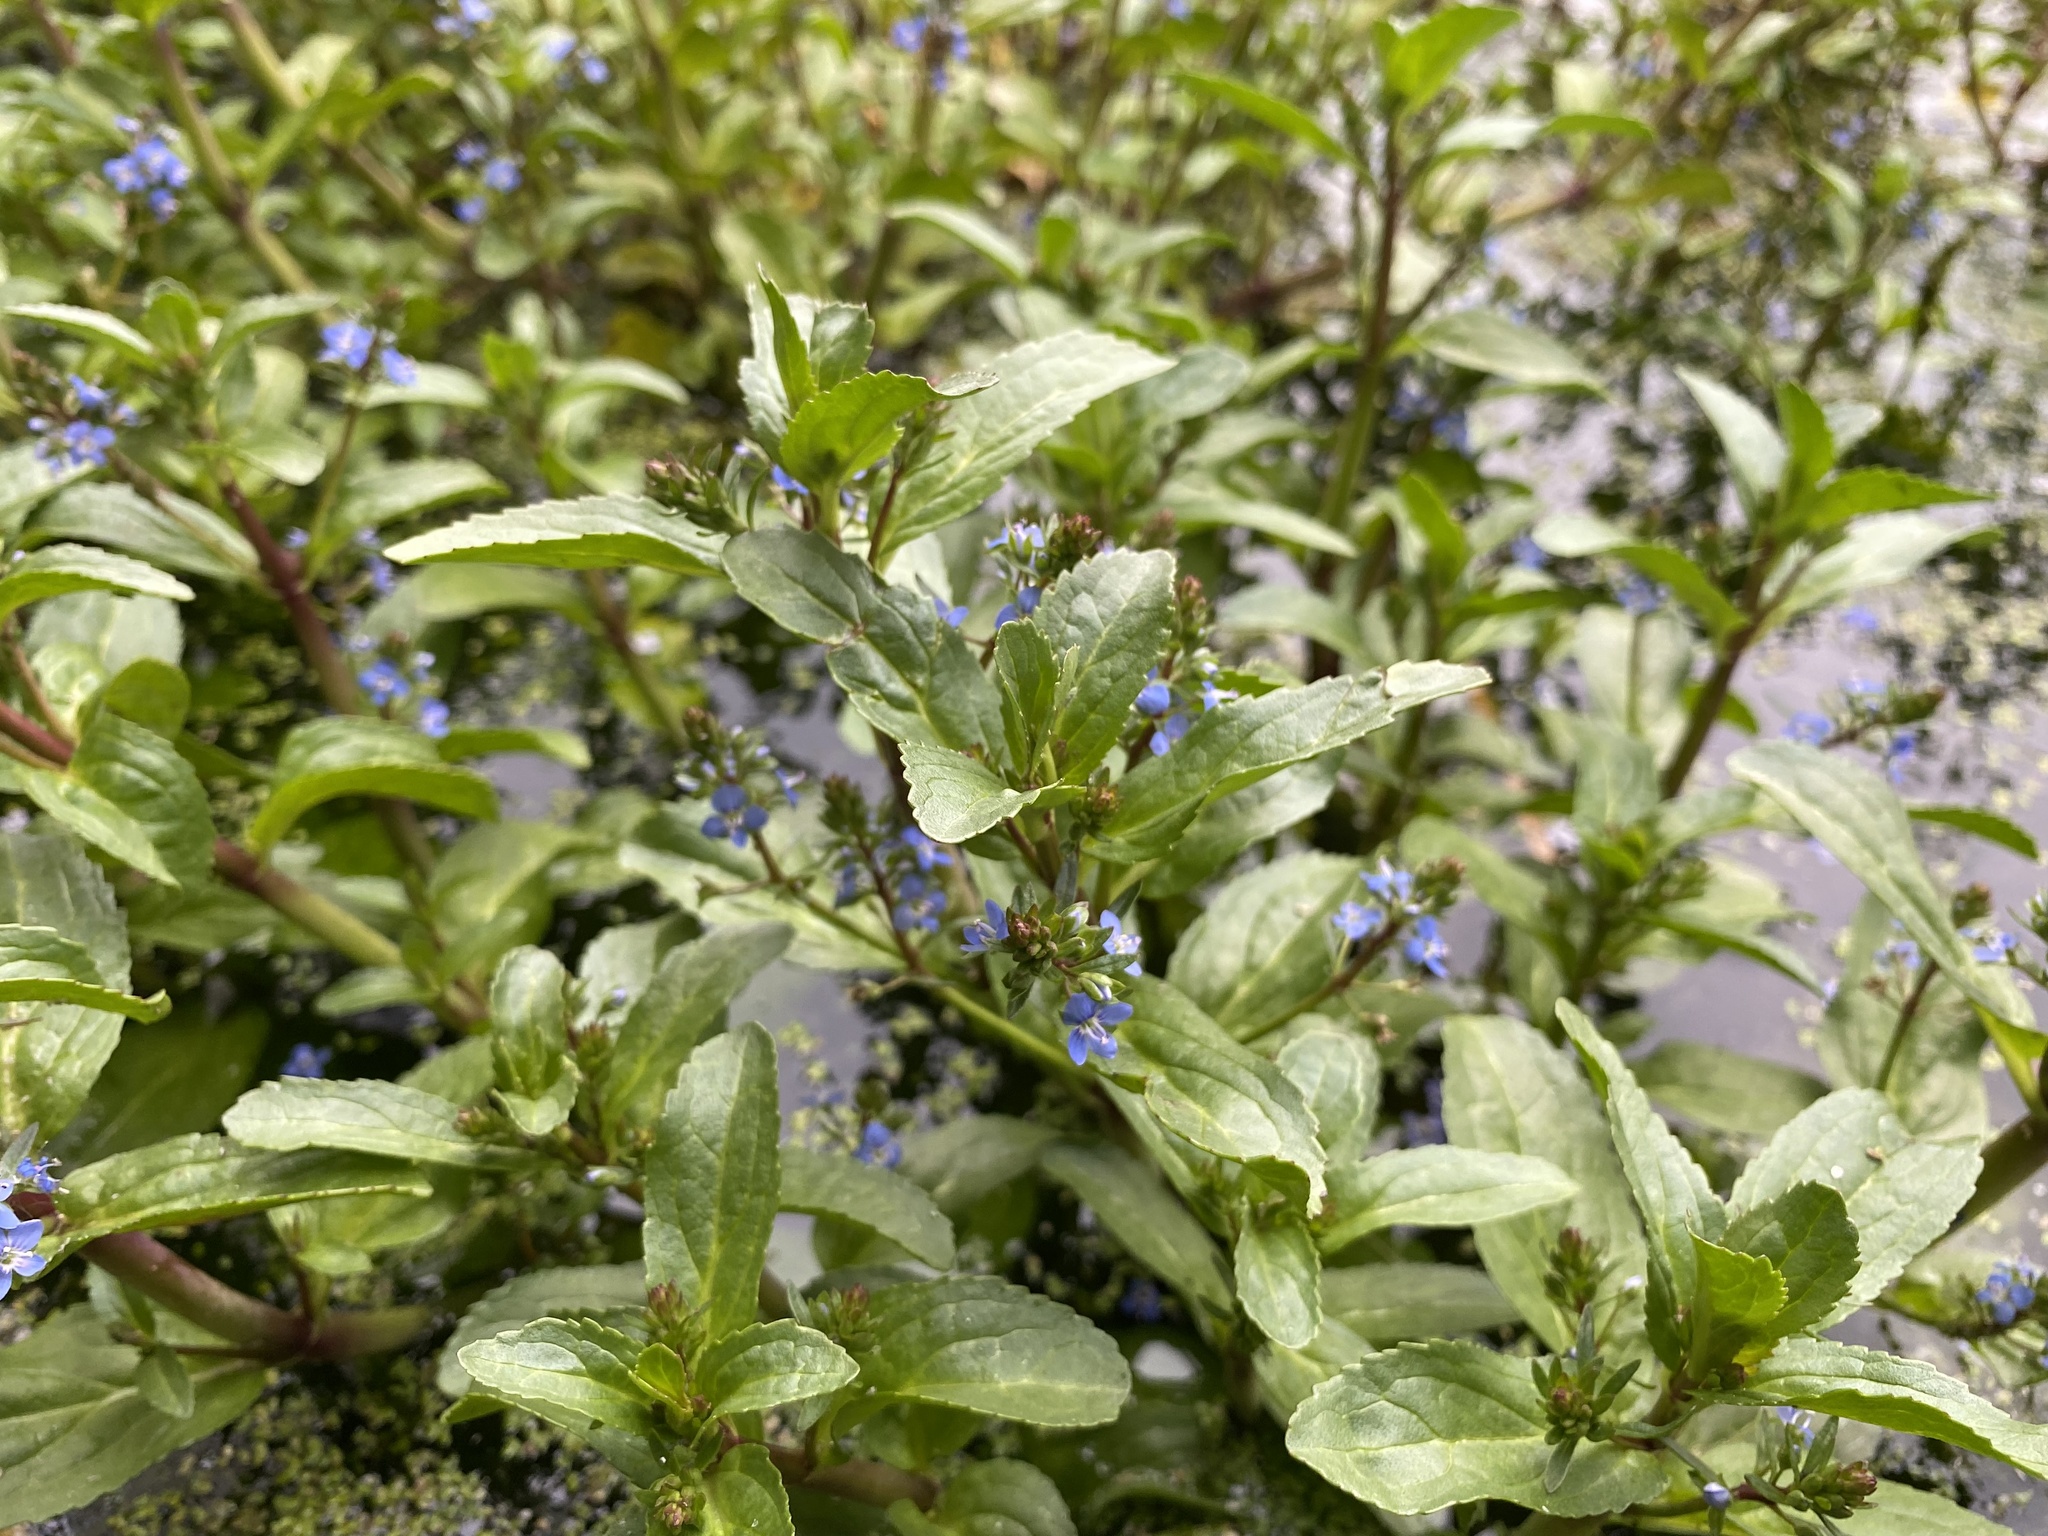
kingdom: Plantae
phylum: Tracheophyta
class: Magnoliopsida
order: Lamiales
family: Plantaginaceae
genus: Veronica
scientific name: Veronica beccabunga
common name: Brooklime
